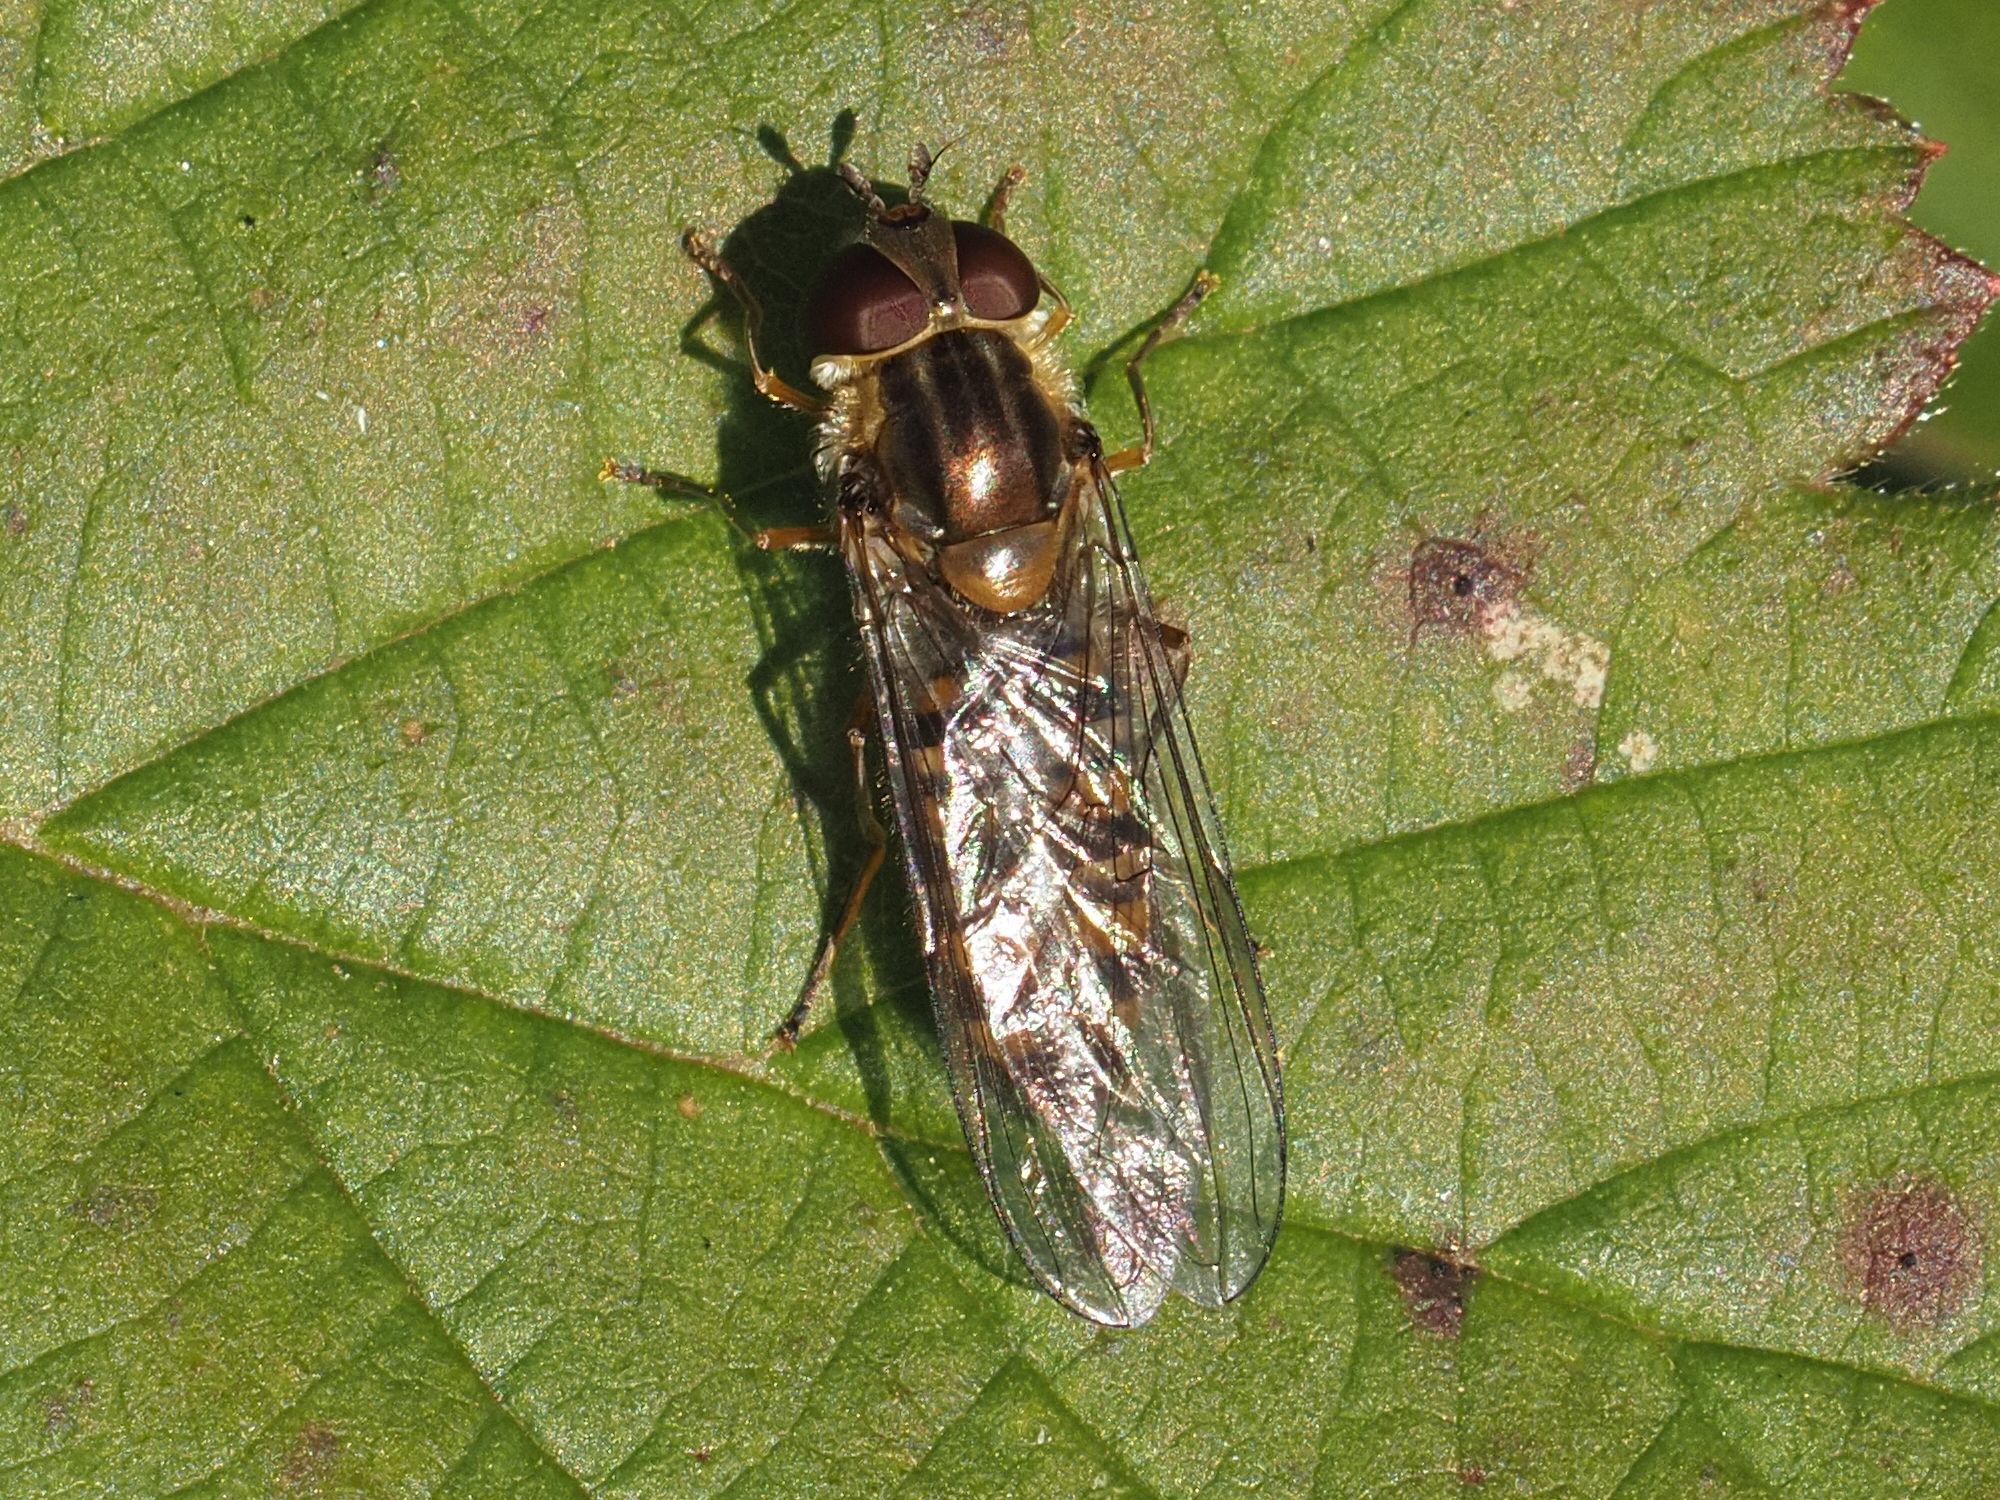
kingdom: Animalia
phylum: Arthropoda
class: Insecta
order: Diptera
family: Syrphidae
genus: Episyrphus
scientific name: Episyrphus balteatus
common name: Marmalade hoverfly
